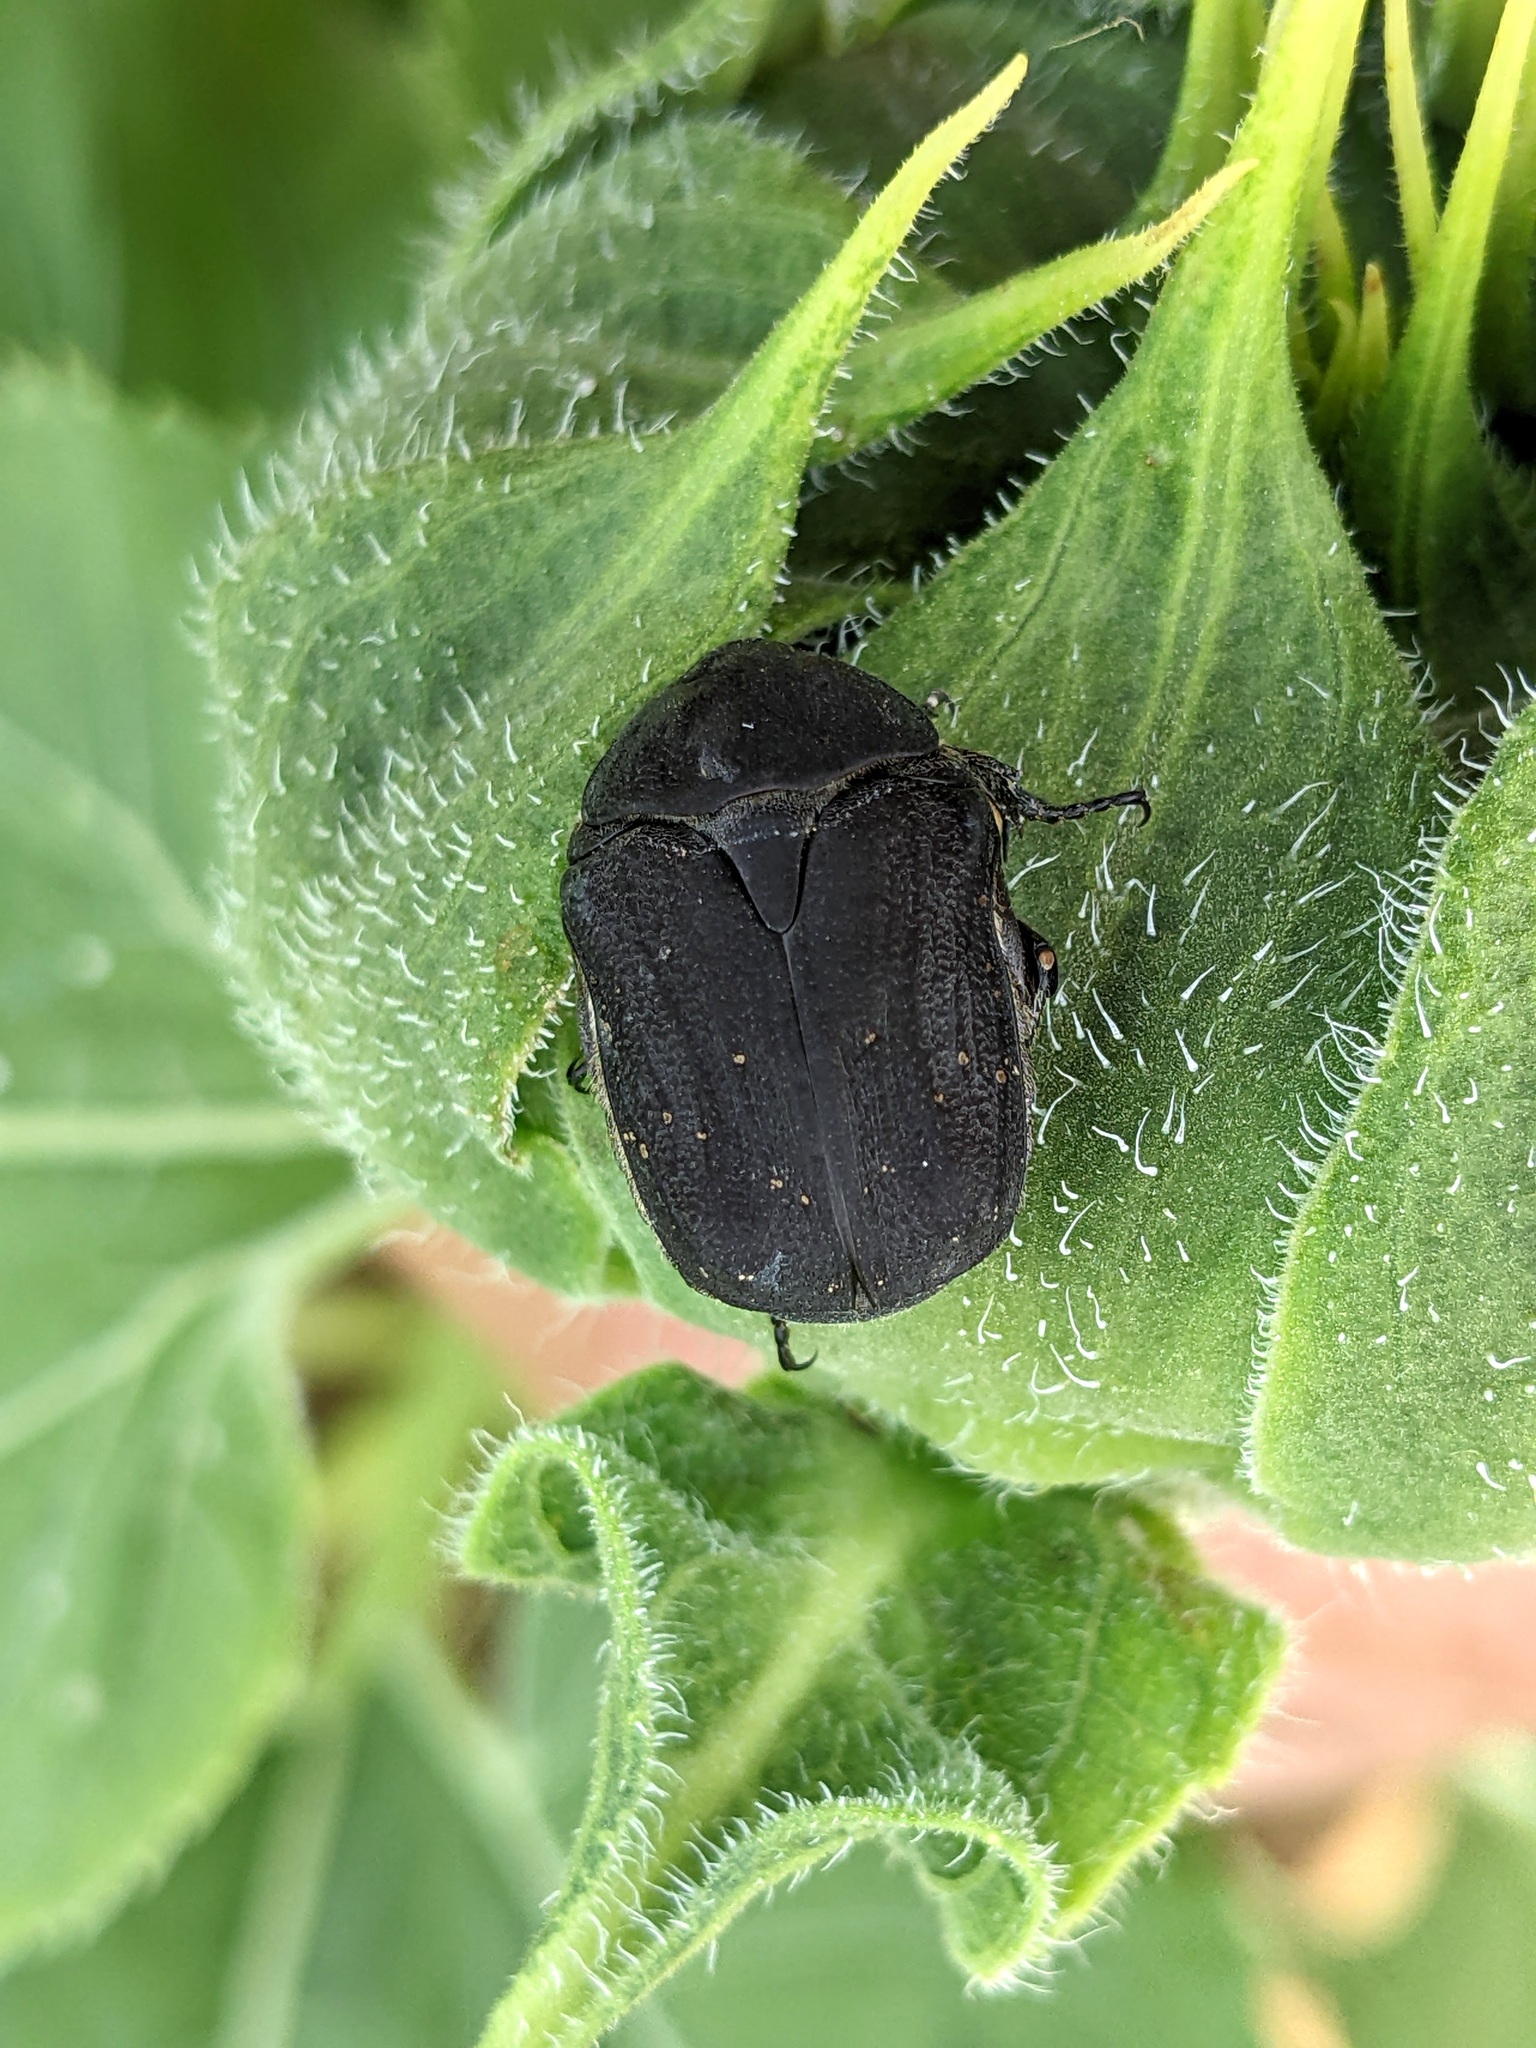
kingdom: Animalia
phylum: Arthropoda
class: Insecta
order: Coleoptera
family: Scarabaeidae
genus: Protaetia
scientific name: Protaetia morio
